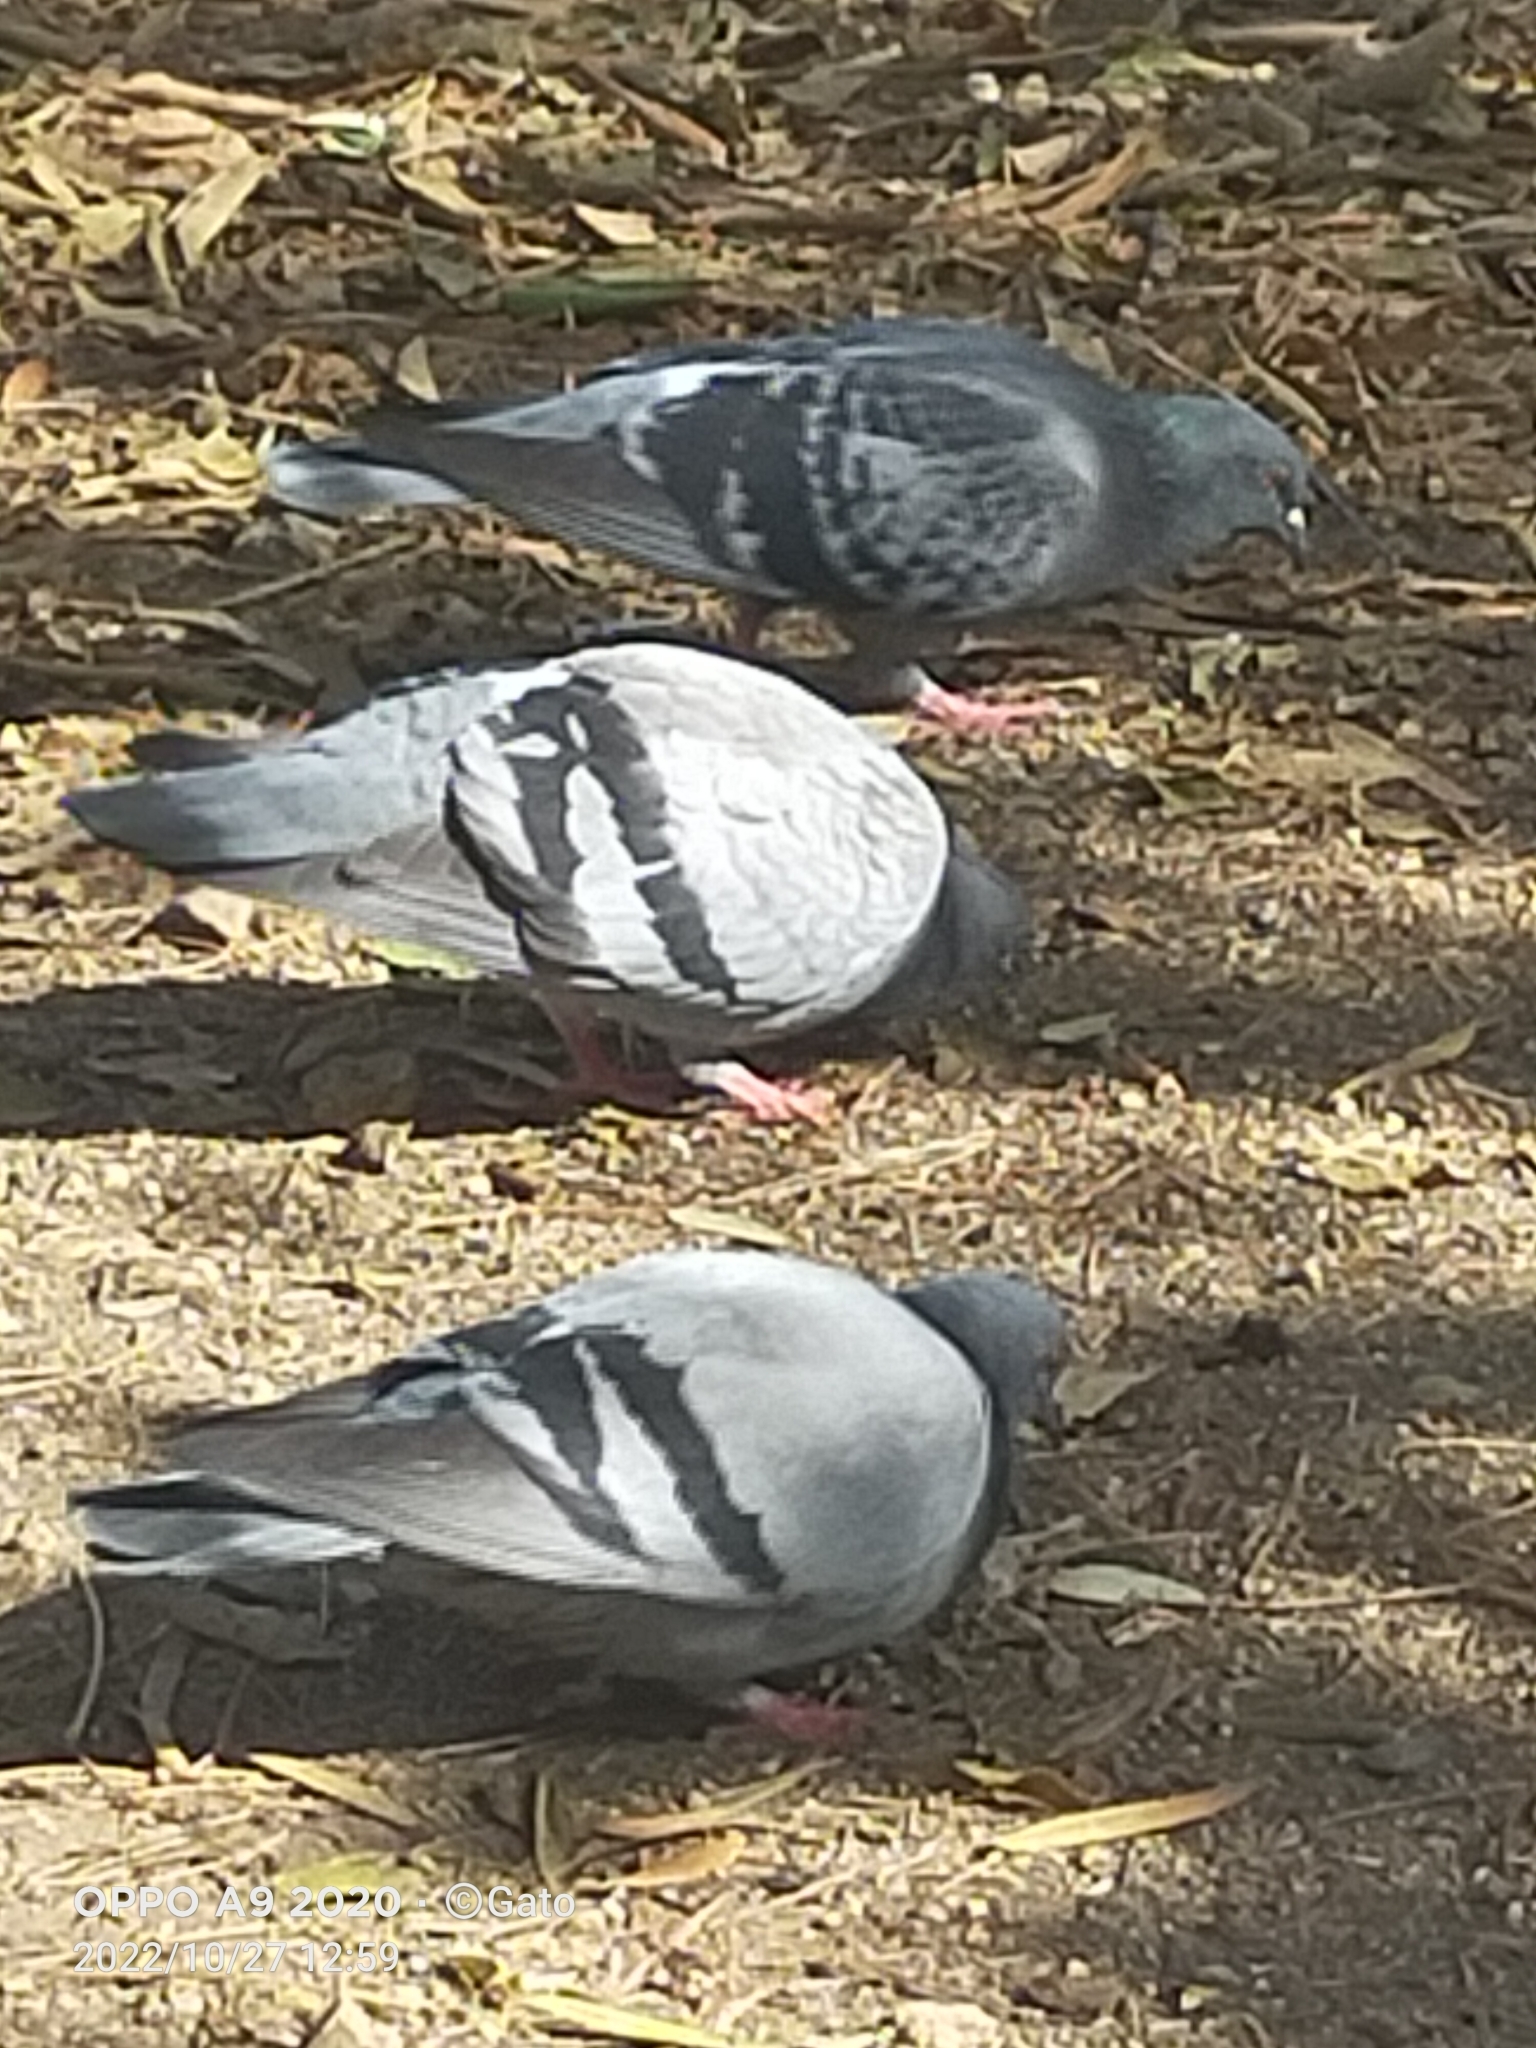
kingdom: Animalia
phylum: Chordata
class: Aves
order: Columbiformes
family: Columbidae
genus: Columba
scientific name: Columba livia
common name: Rock pigeon
